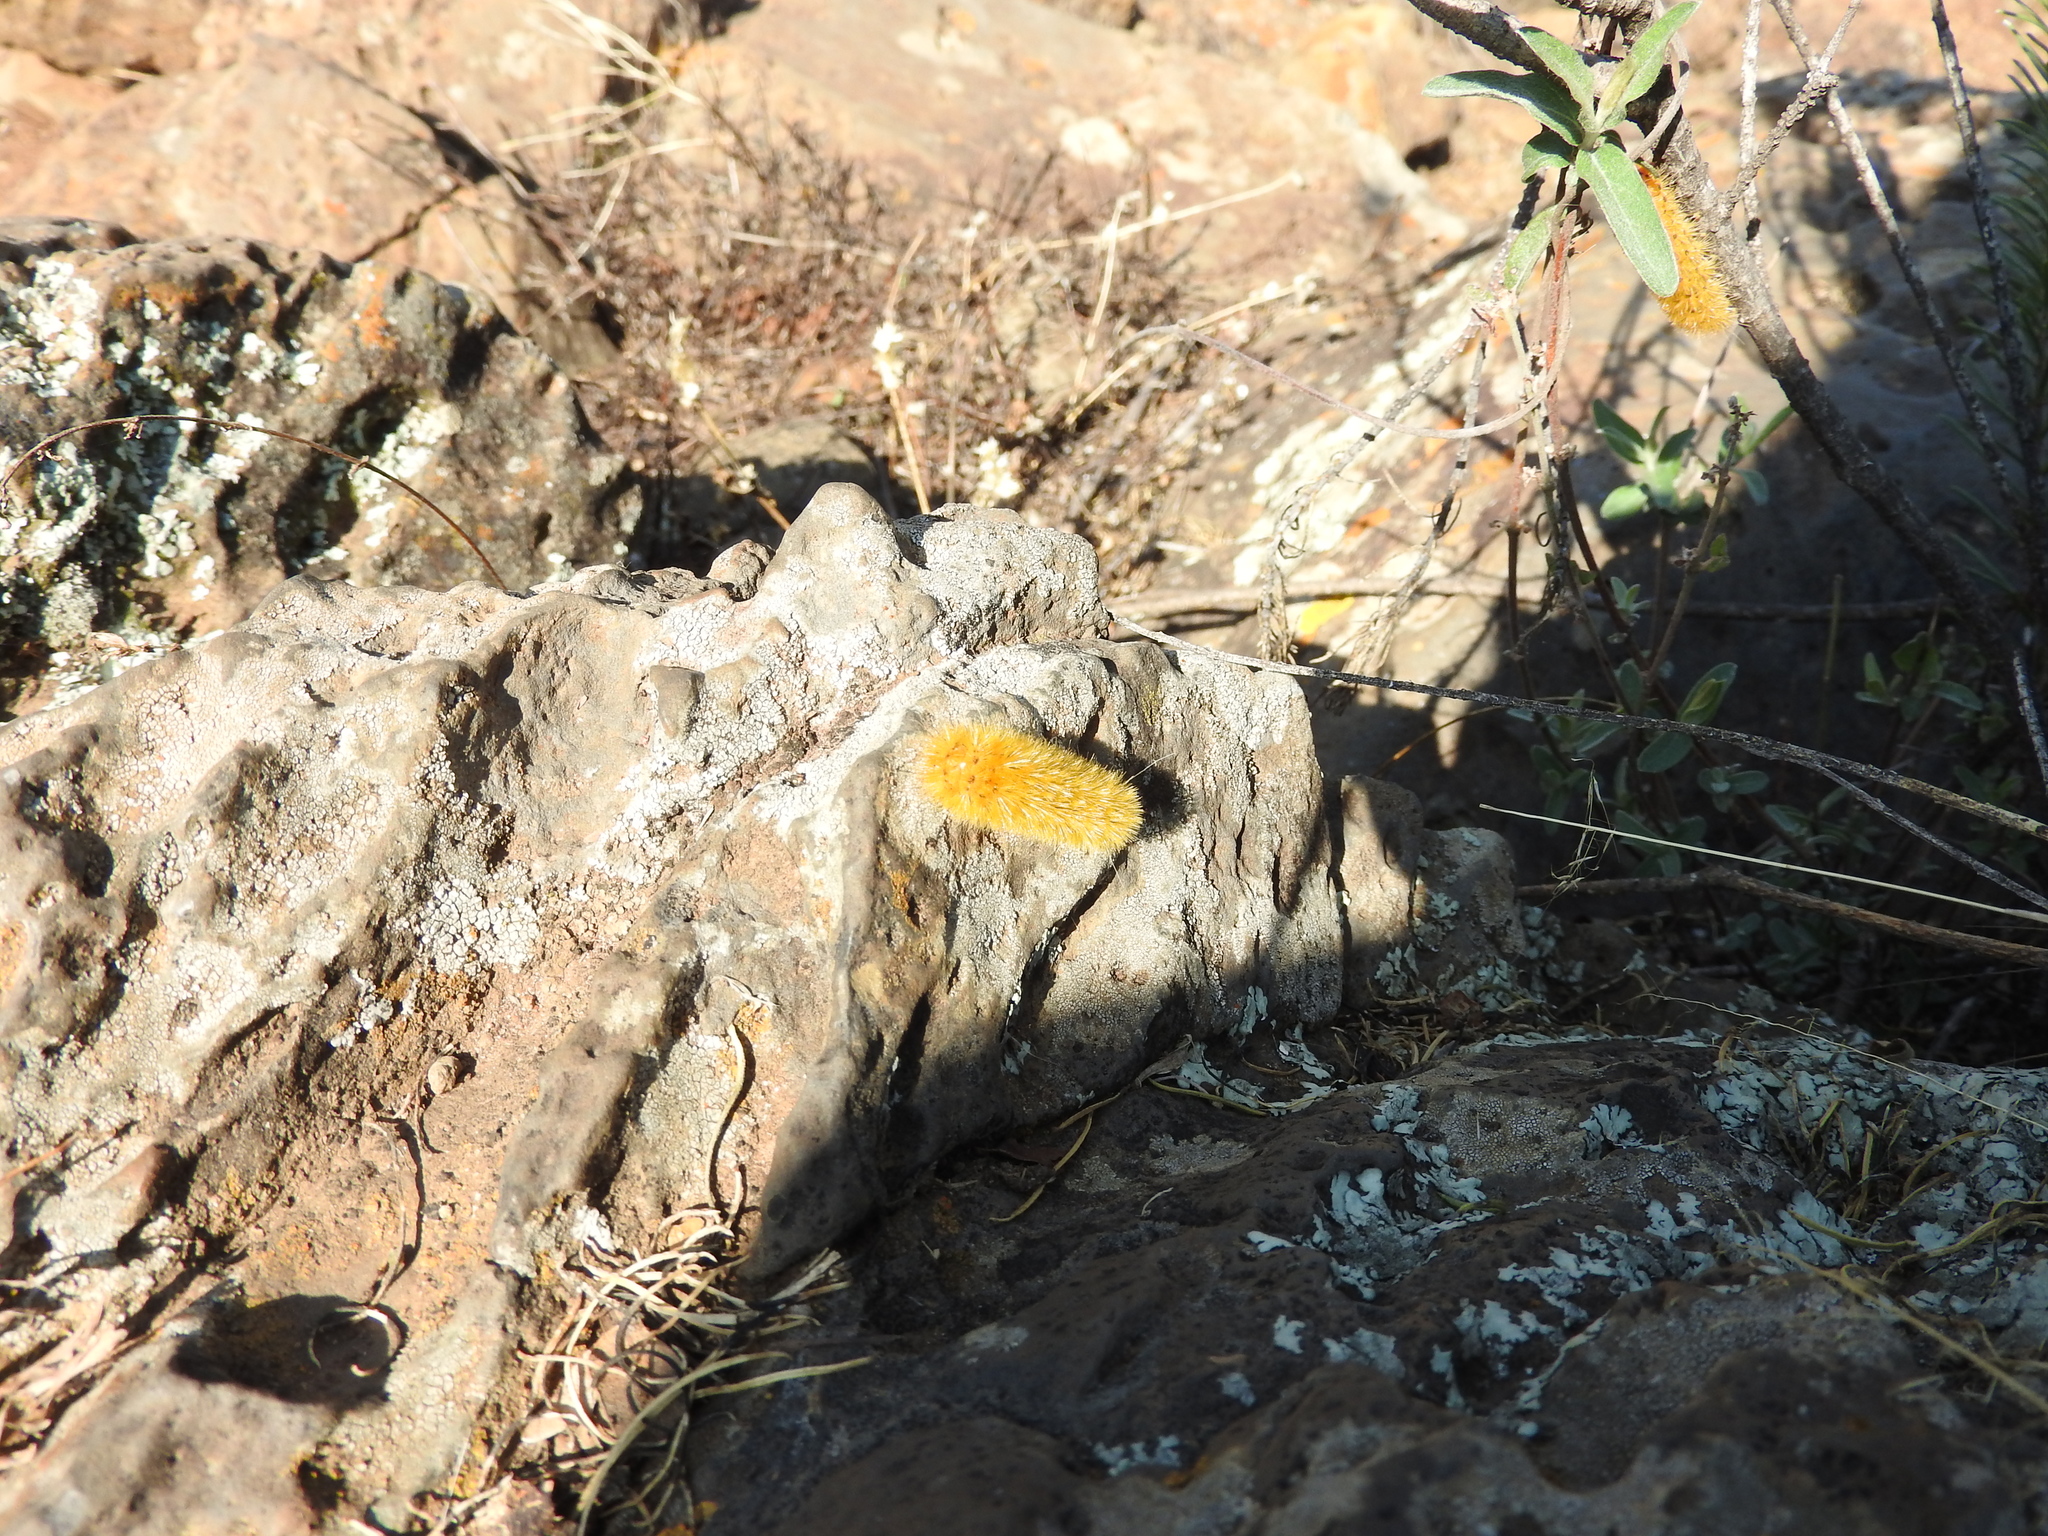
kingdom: Animalia
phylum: Arthropoda
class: Insecta
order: Lepidoptera
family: Erebidae
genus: Lerina
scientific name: Lerina incarnata
